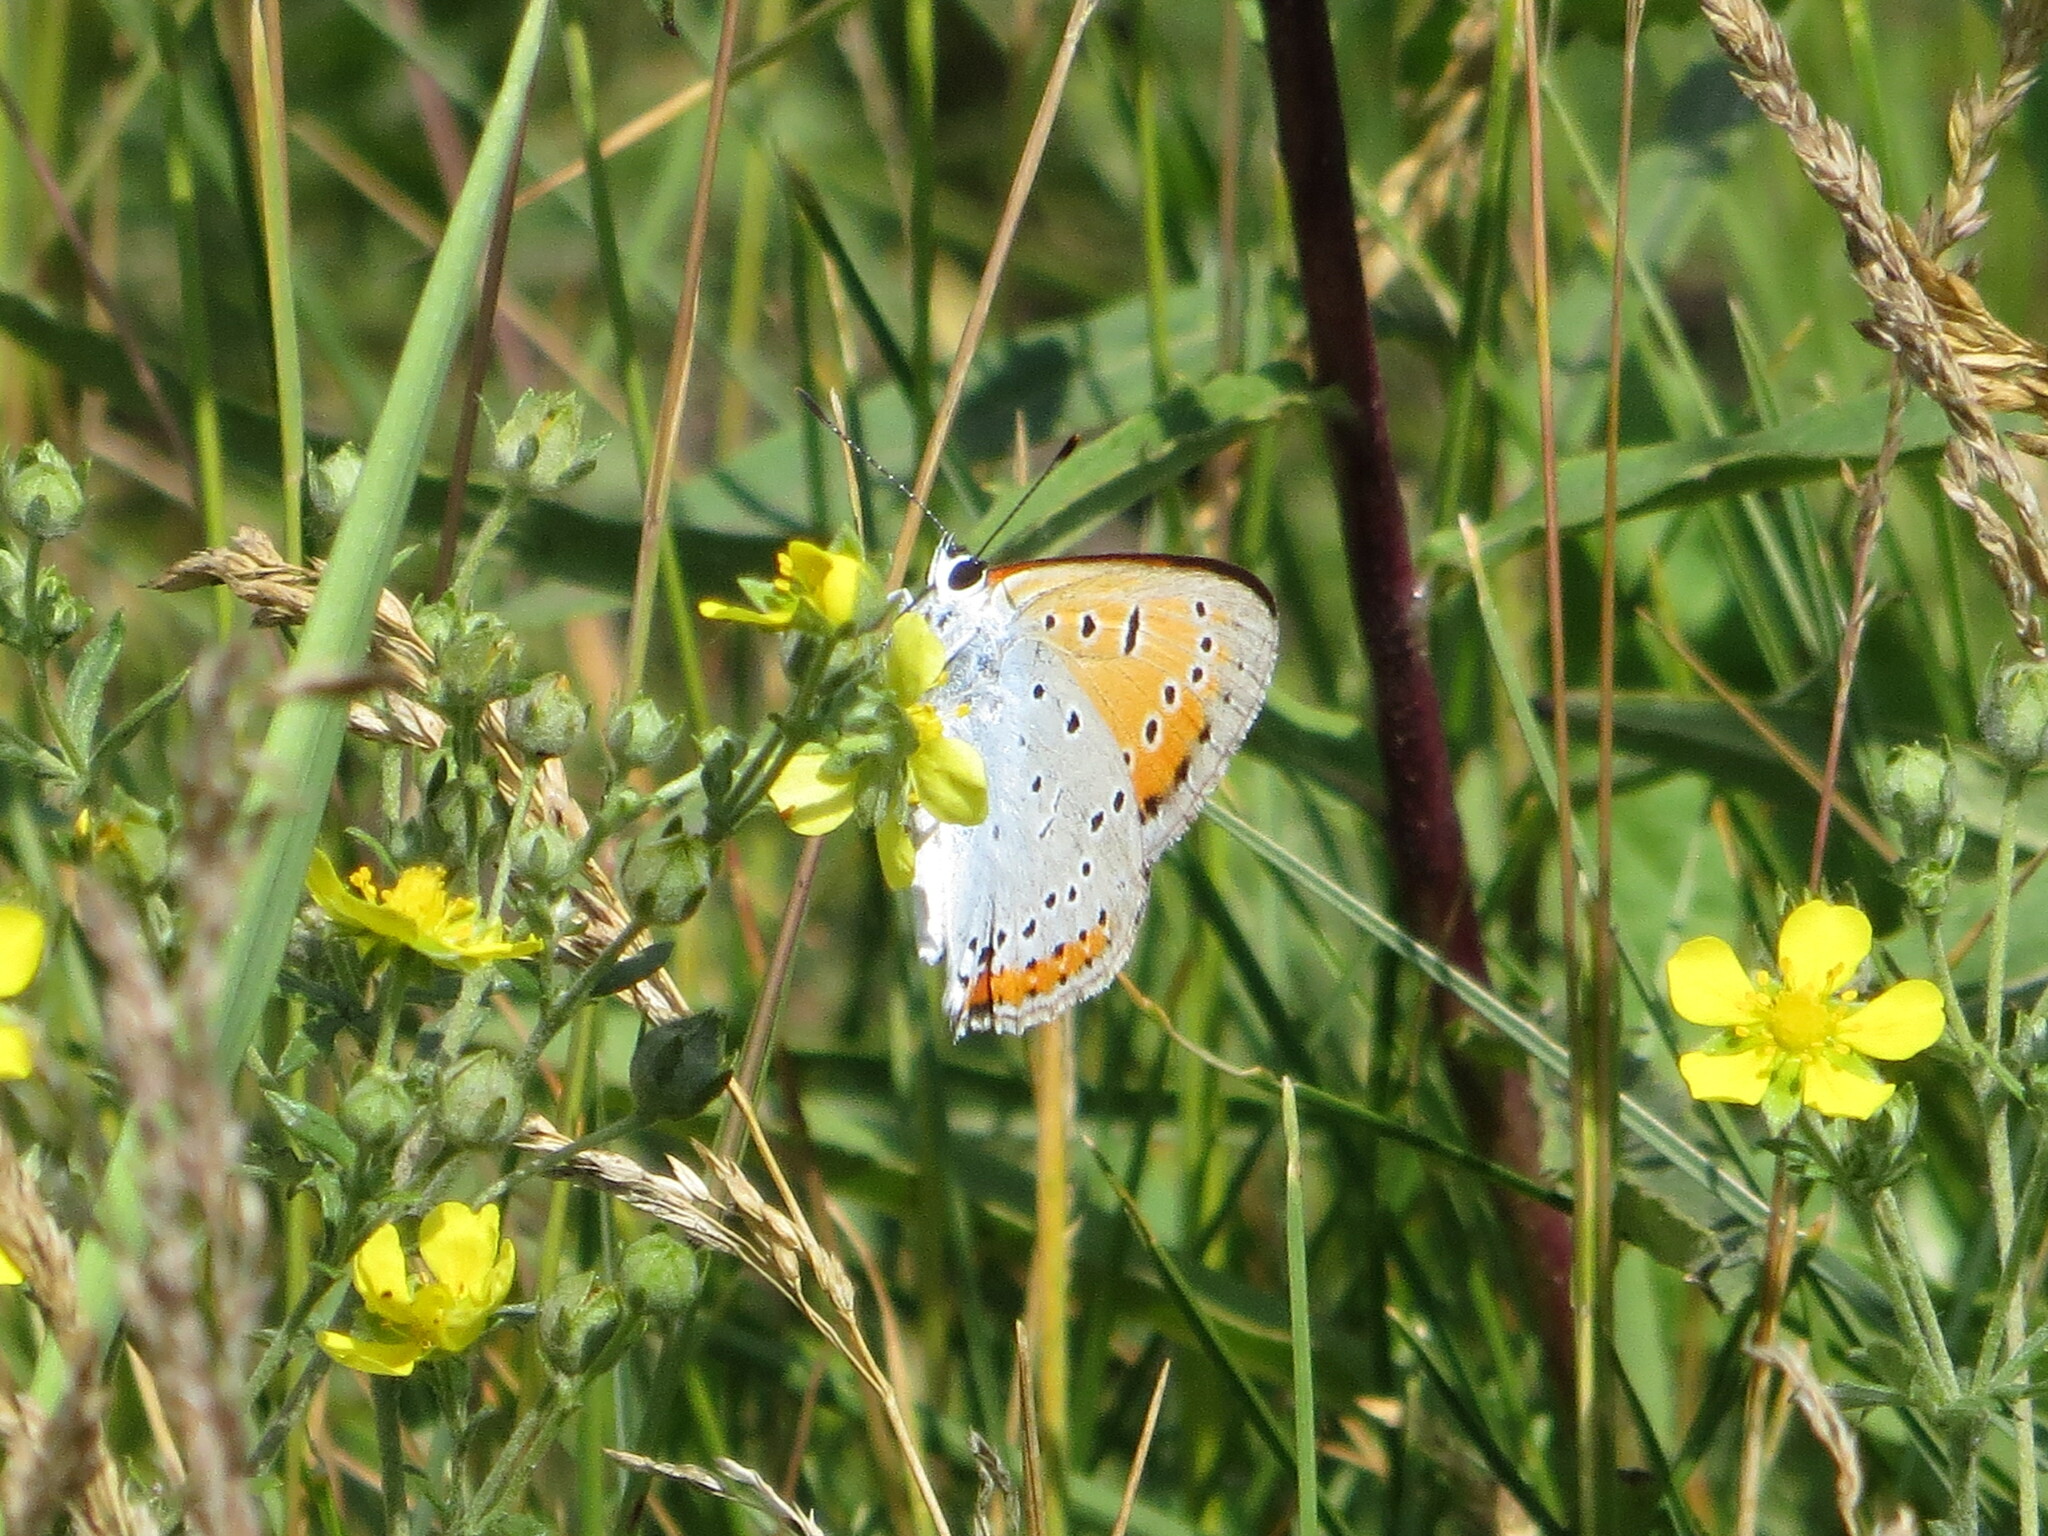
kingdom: Animalia
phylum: Arthropoda
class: Insecta
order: Lepidoptera
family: Lycaenidae
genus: Lycaena
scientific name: Lycaena dispar
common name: Large copper
